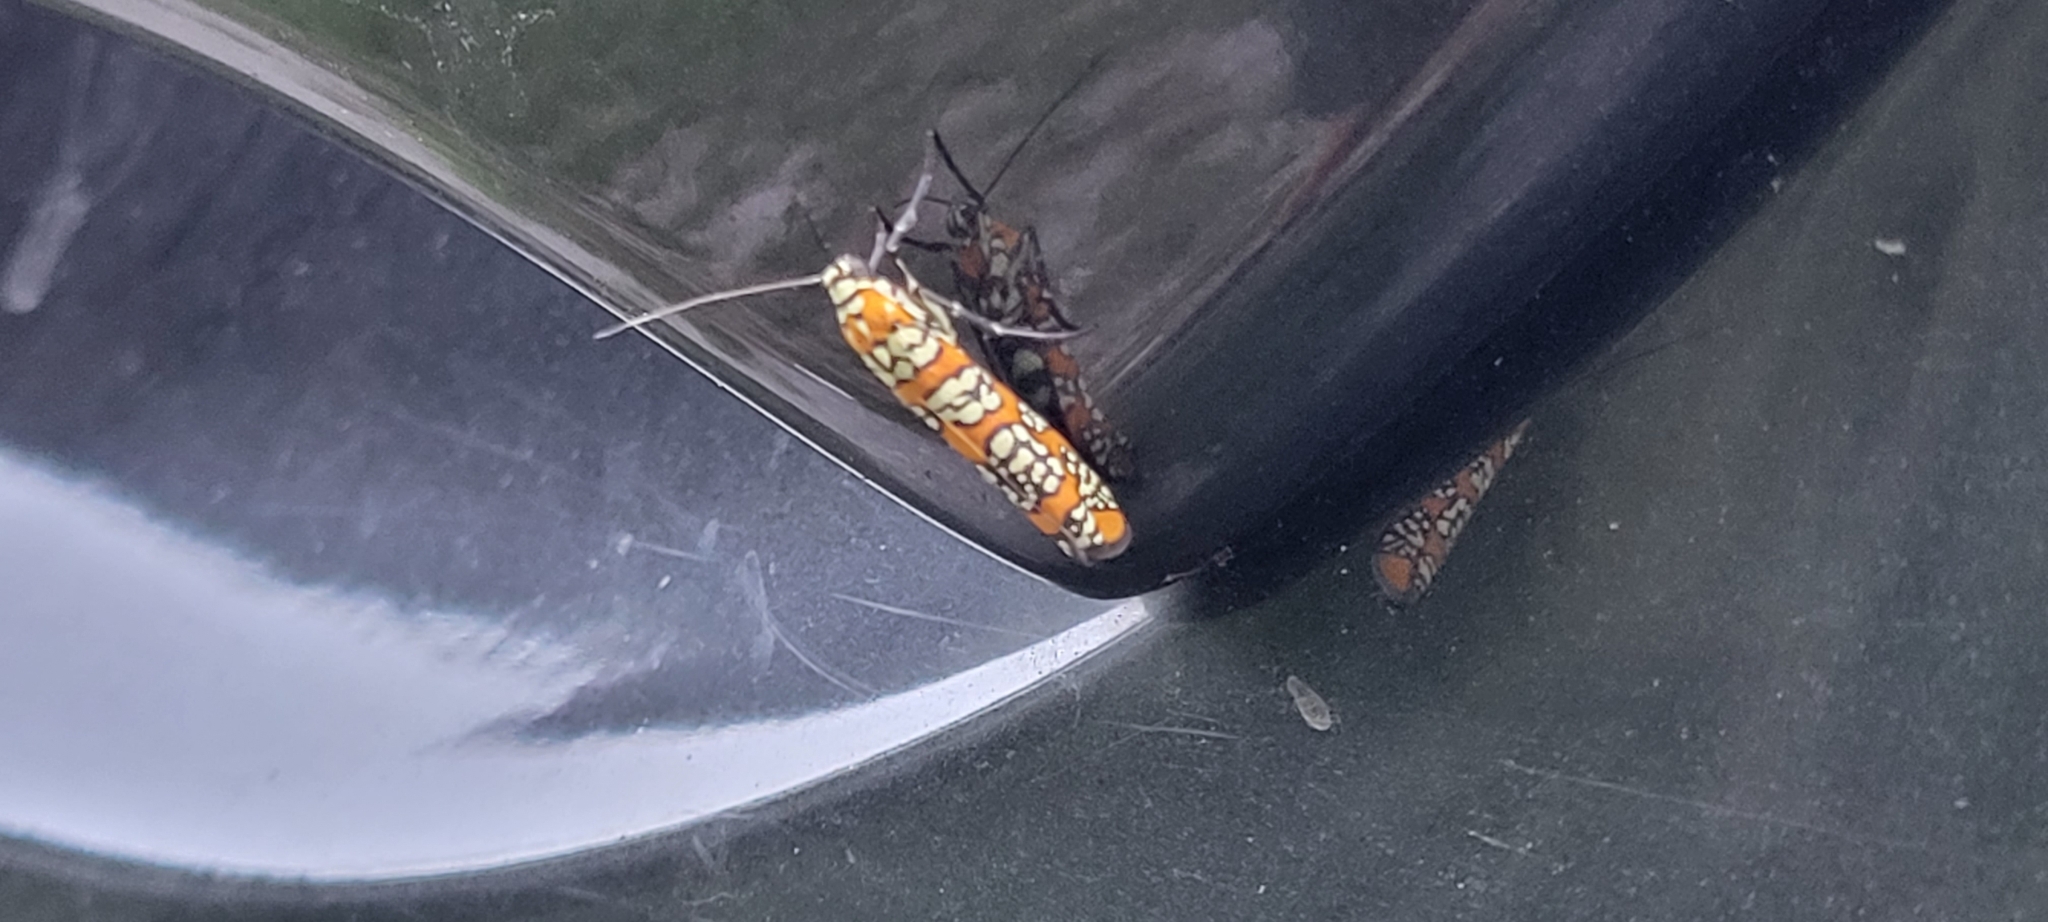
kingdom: Animalia
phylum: Arthropoda
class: Insecta
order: Lepidoptera
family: Attevidae
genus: Atteva
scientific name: Atteva punctella
